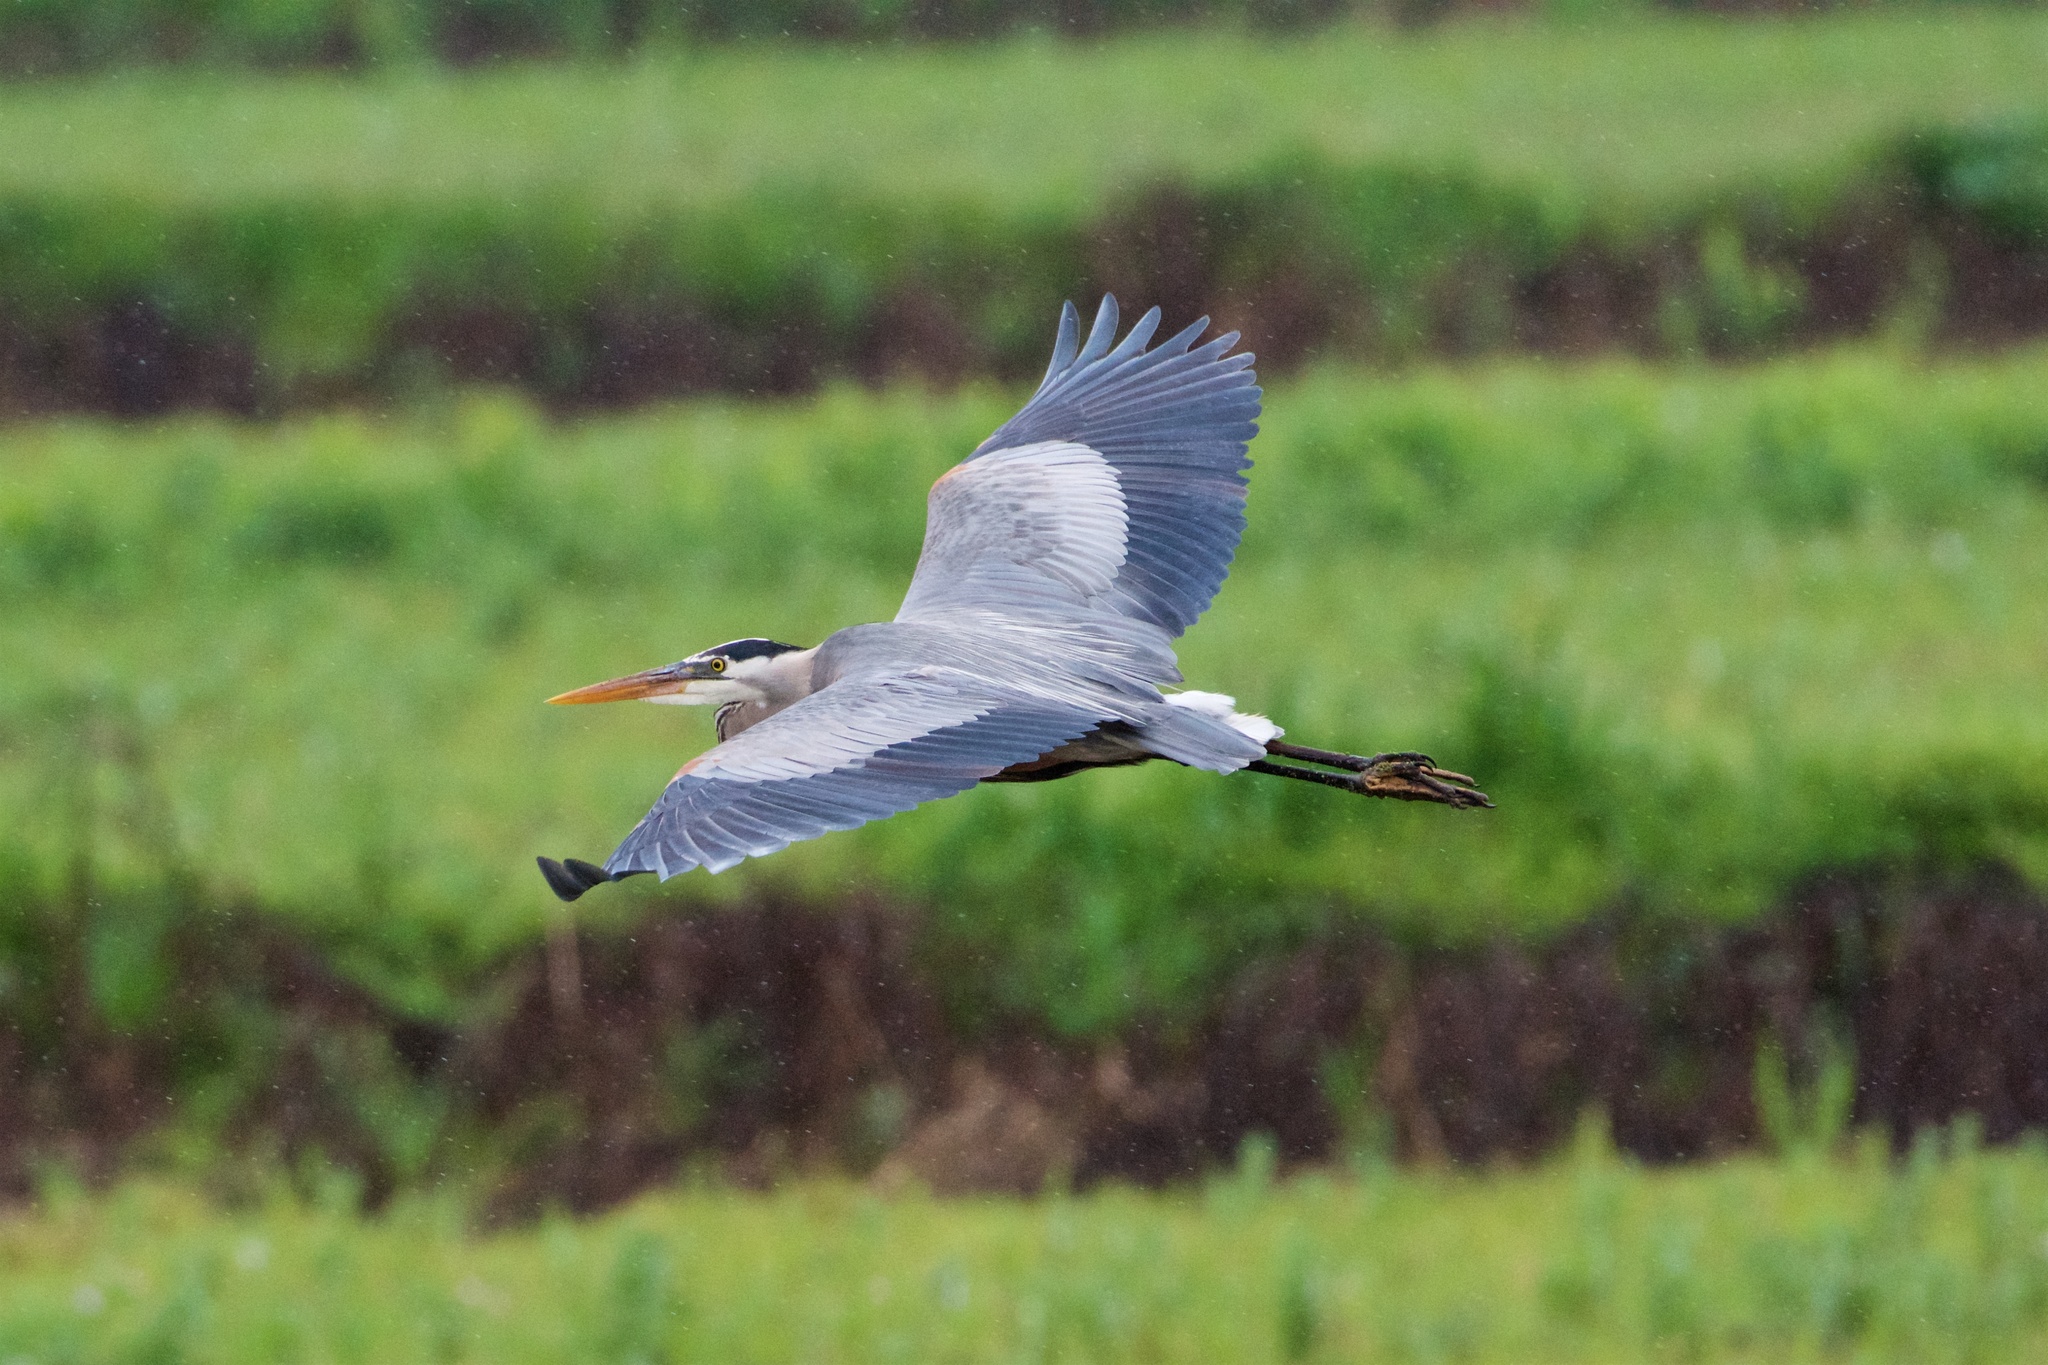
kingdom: Animalia
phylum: Chordata
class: Aves
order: Pelecaniformes
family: Ardeidae
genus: Ardea
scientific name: Ardea herodias
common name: Great blue heron
